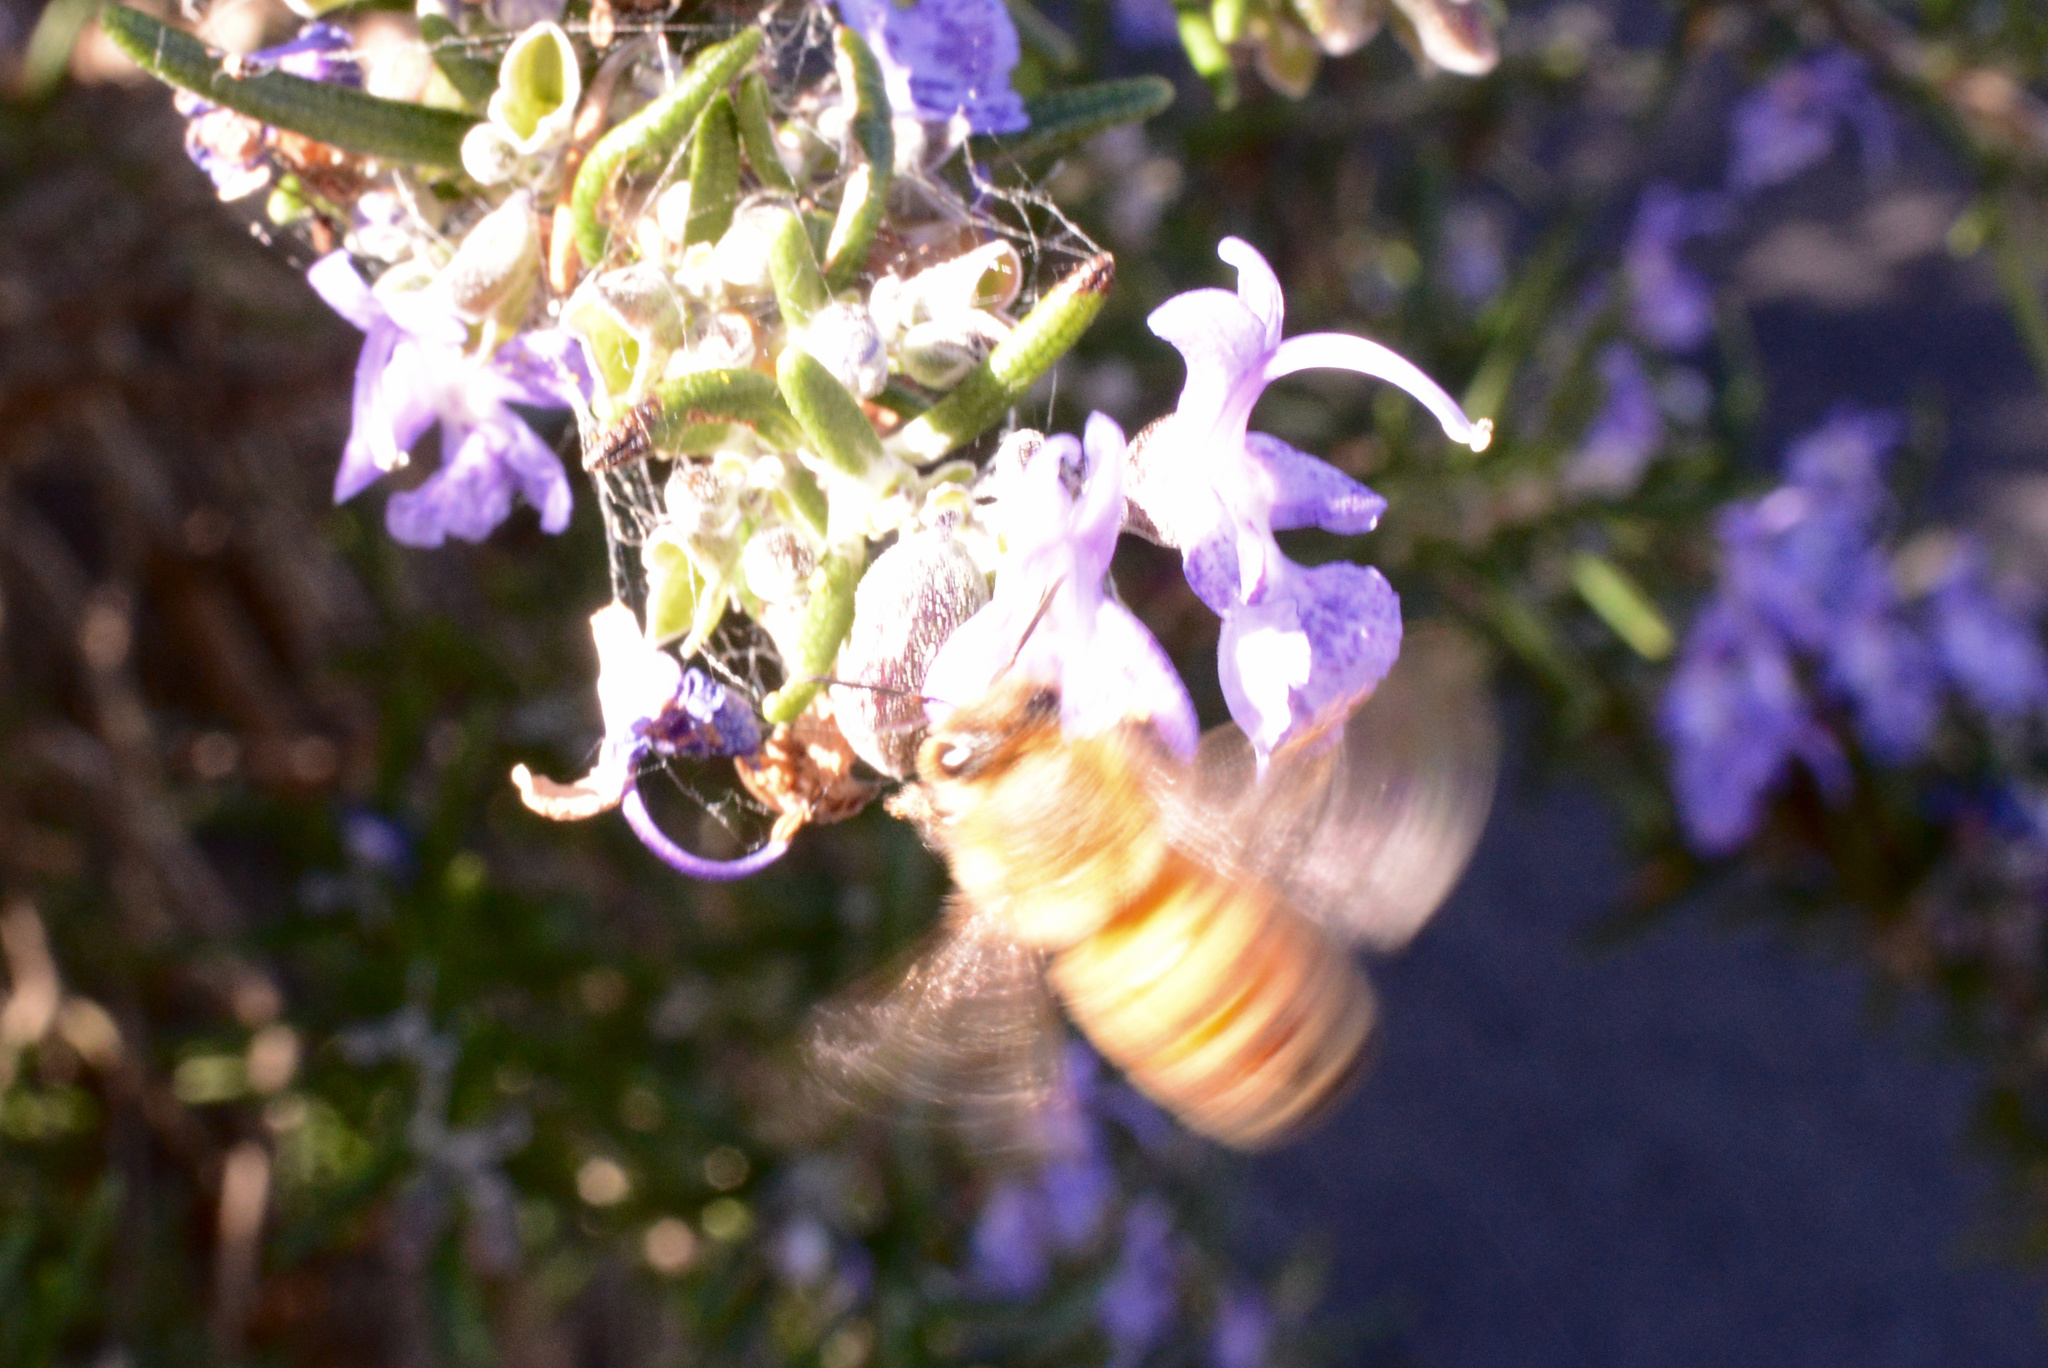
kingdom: Animalia
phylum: Arthropoda
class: Insecta
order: Hymenoptera
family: Apidae
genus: Apis
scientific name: Apis mellifera
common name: Honey bee
